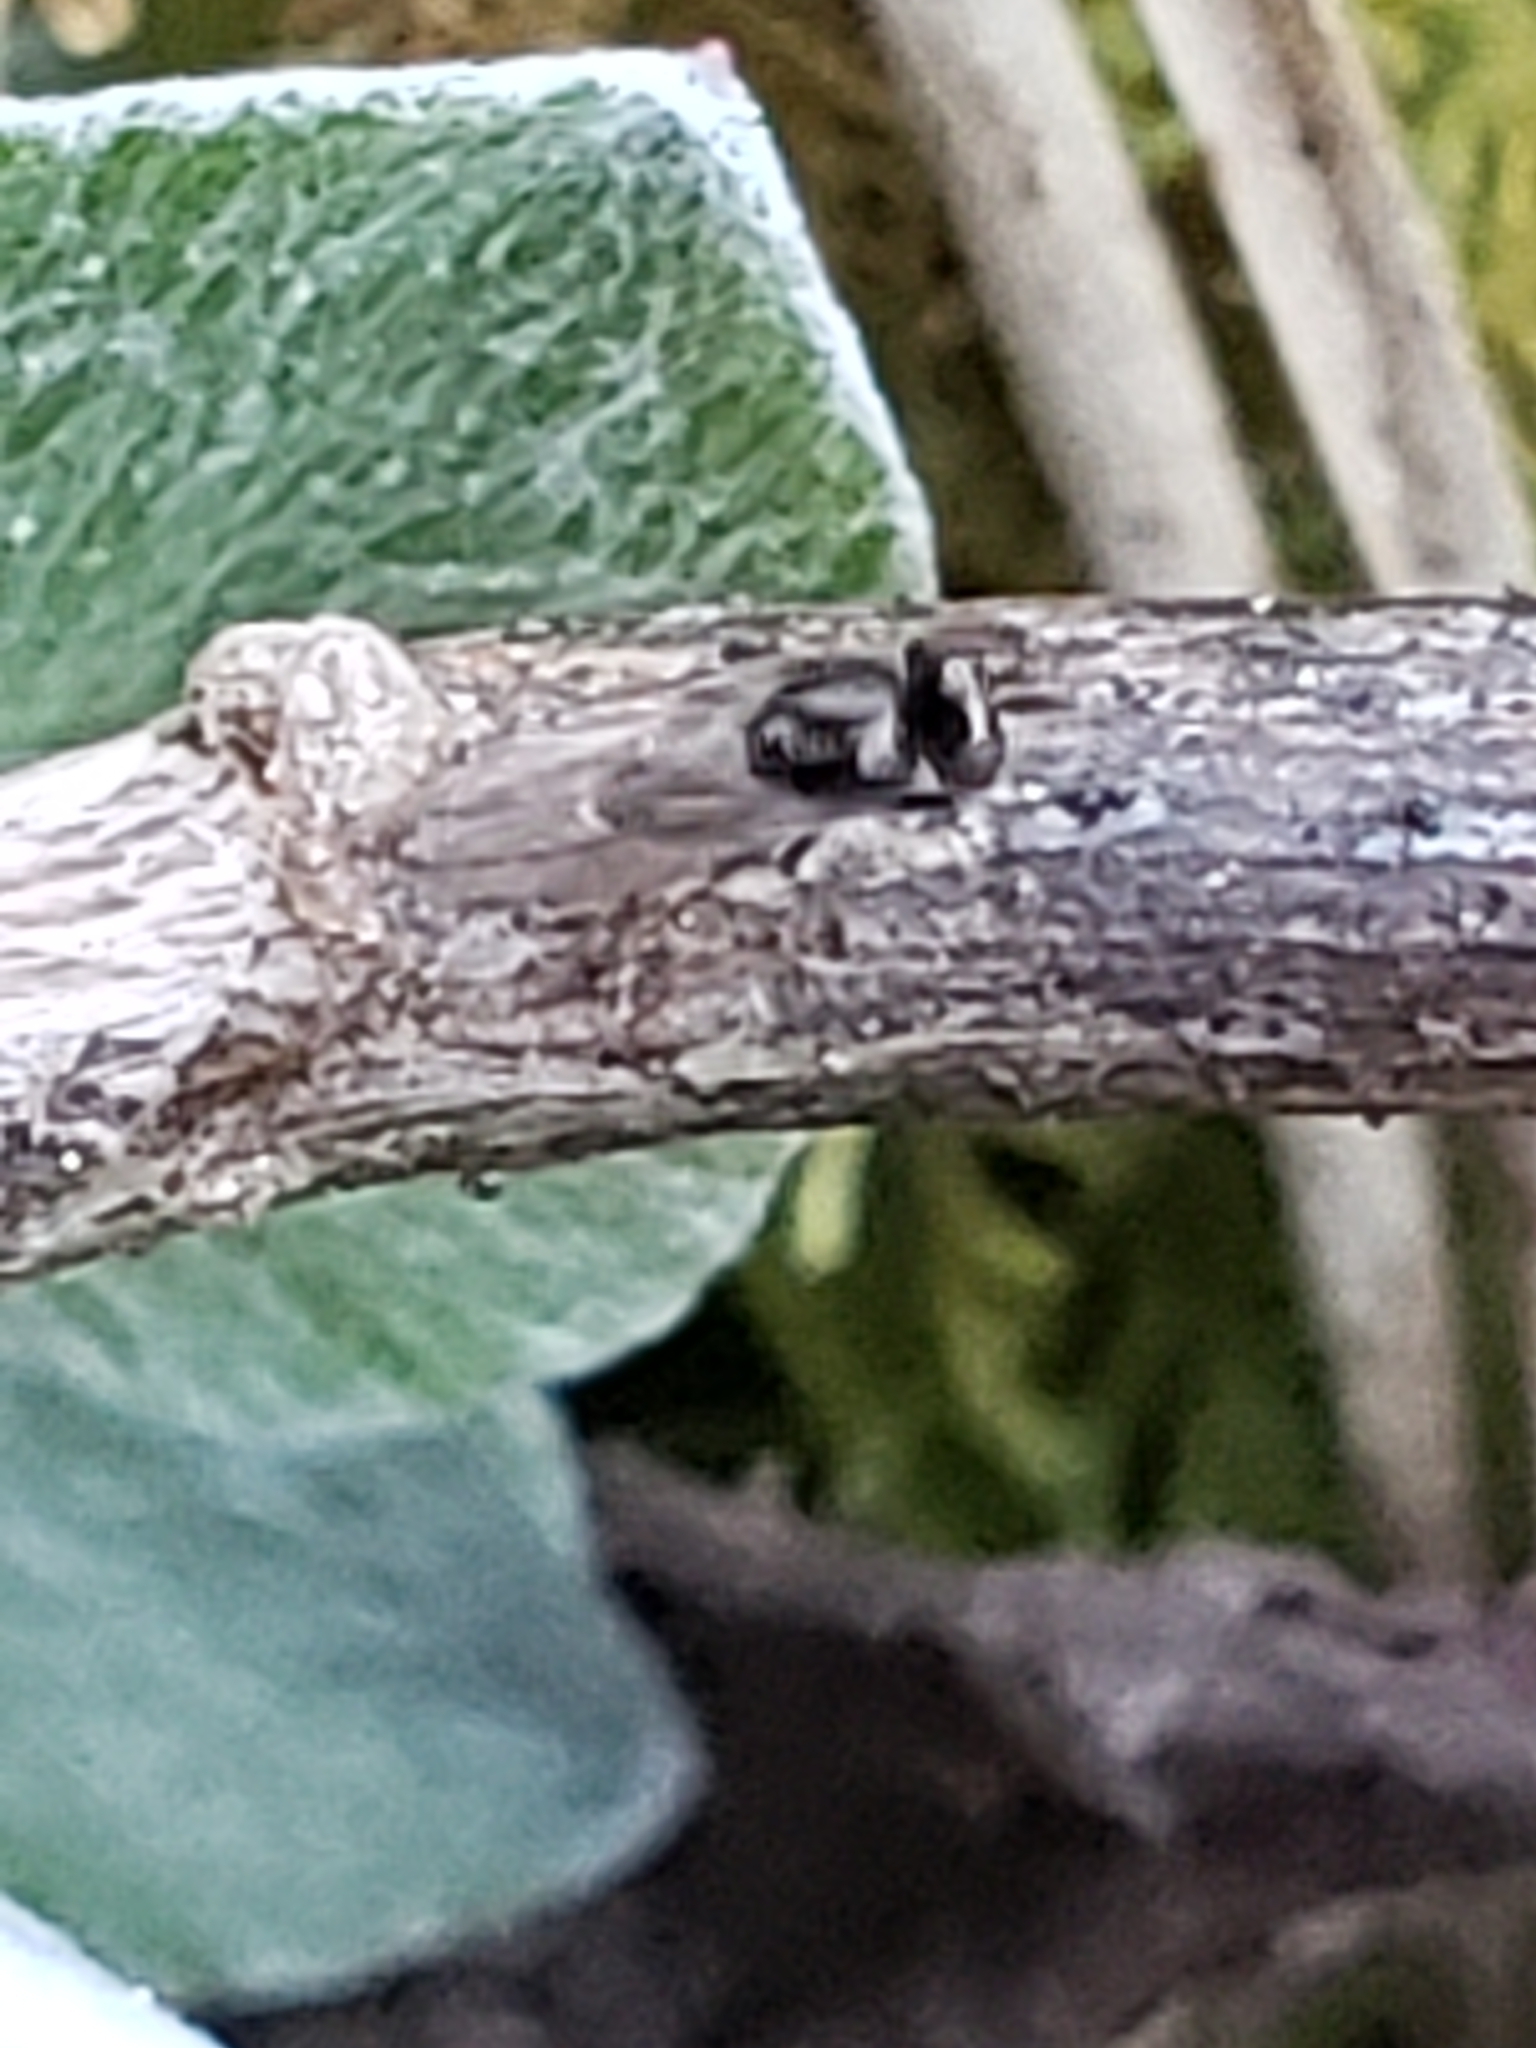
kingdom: Animalia
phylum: Arthropoda
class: Insecta
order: Diptera
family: Ephydridae
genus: Hyadina
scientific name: Hyadina albovenosa
